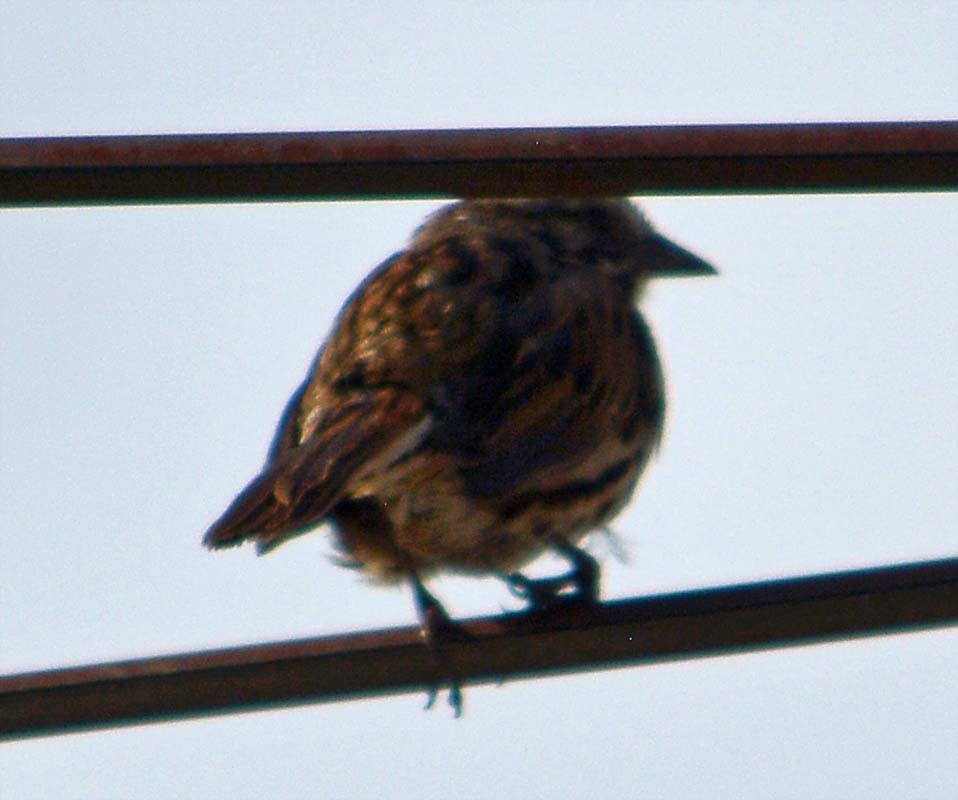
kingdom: Animalia
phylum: Chordata
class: Aves
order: Passeriformes
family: Passerellidae
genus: Melospiza
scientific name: Melospiza melodia
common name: Song sparrow
